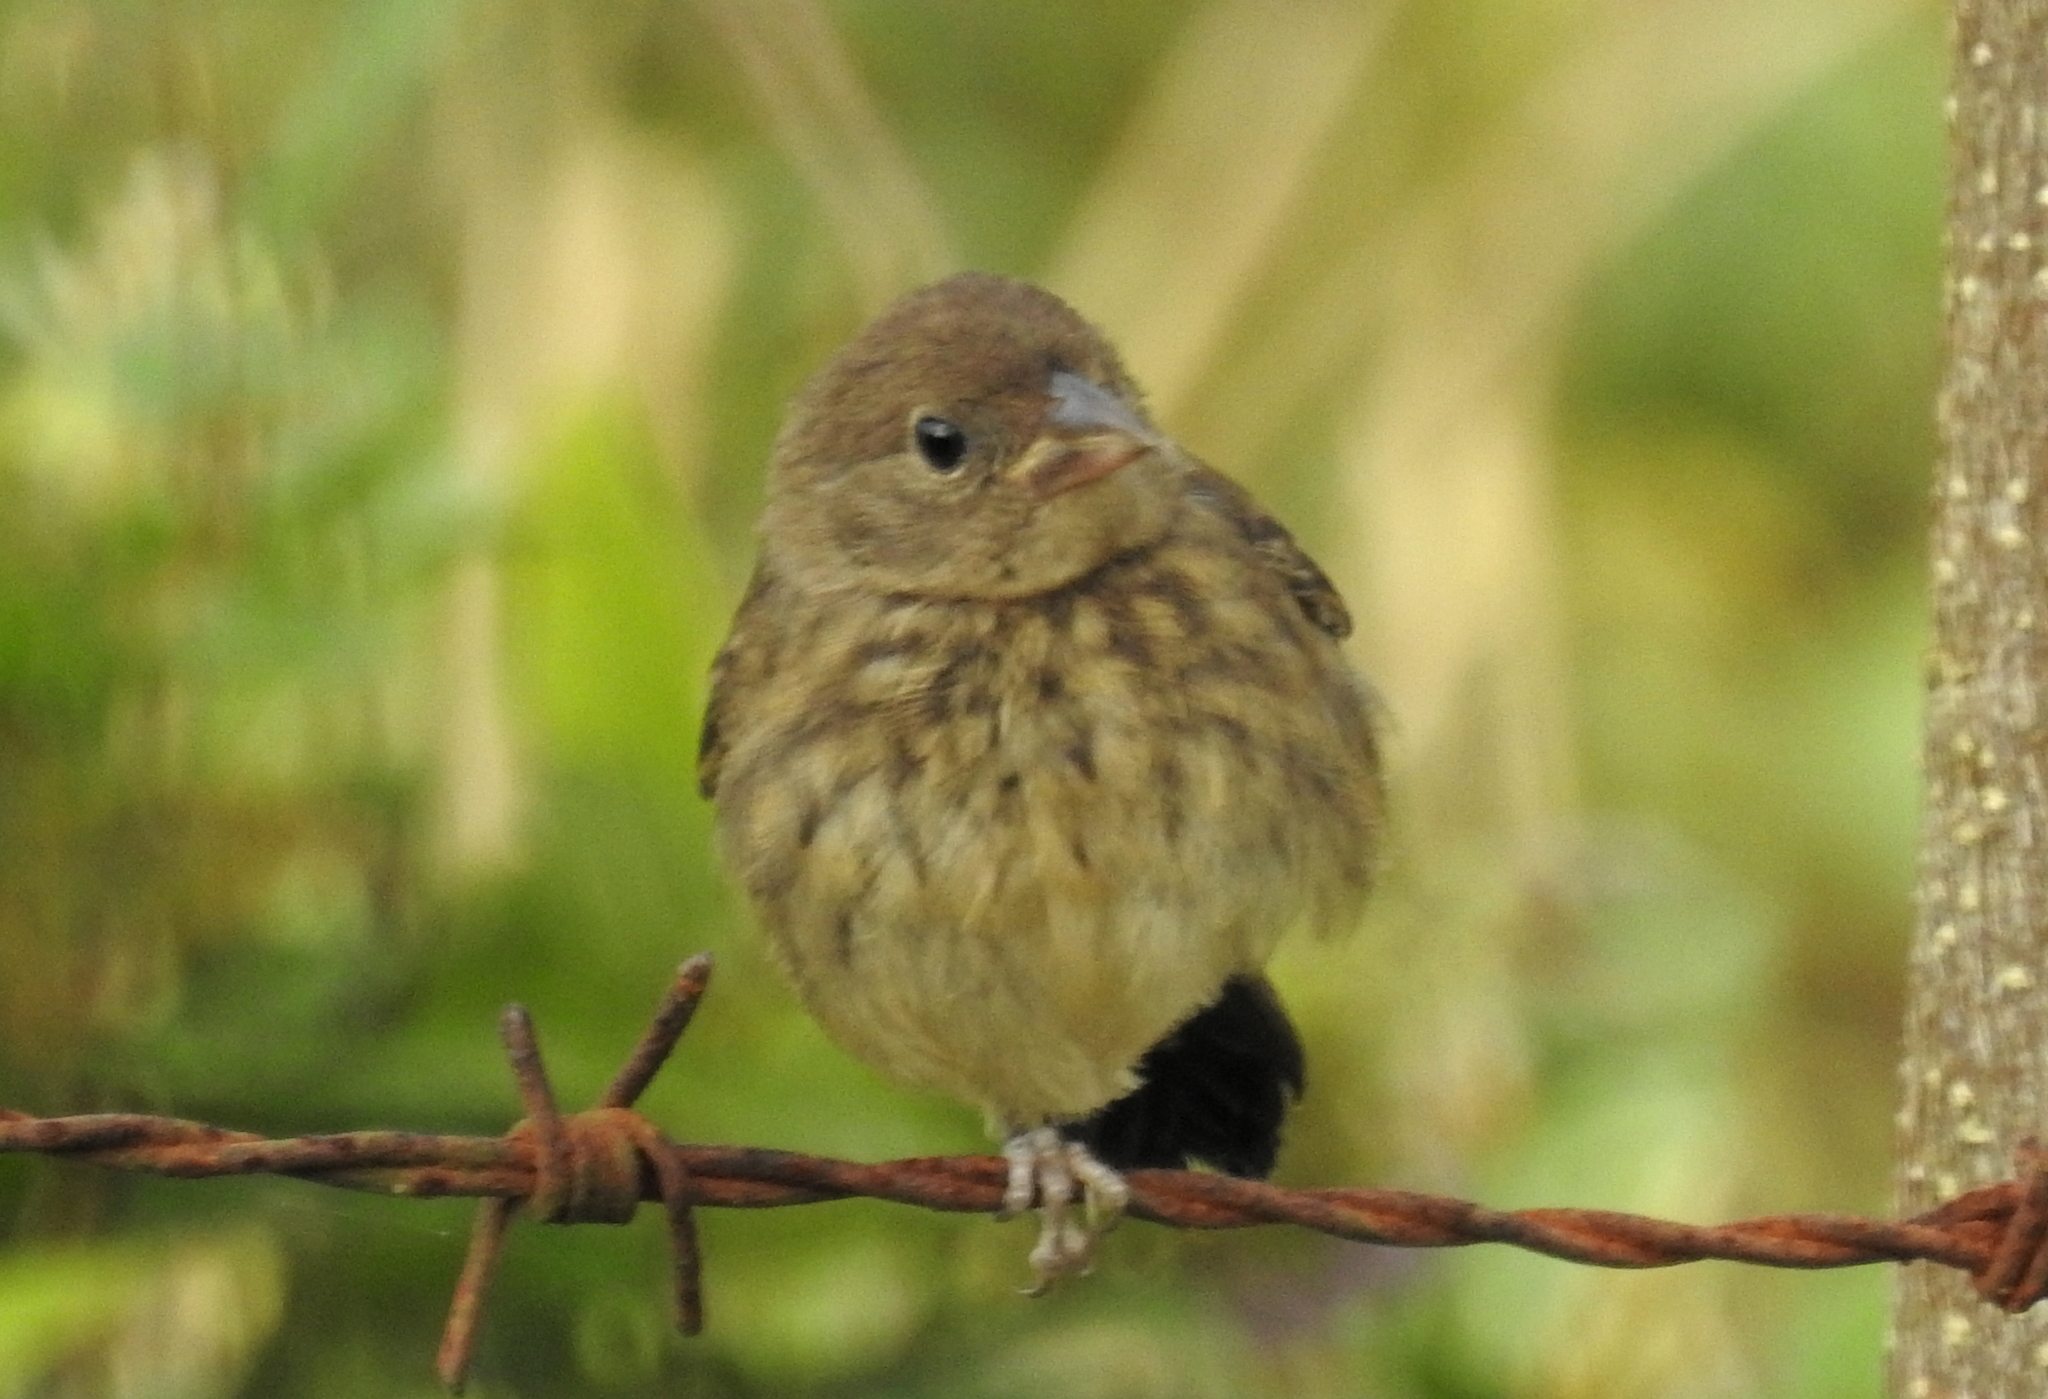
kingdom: Animalia
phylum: Chordata
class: Aves
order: Passeriformes
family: Thraupidae
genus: Volatinia
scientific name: Volatinia jacarina
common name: Blue-black grassquit
